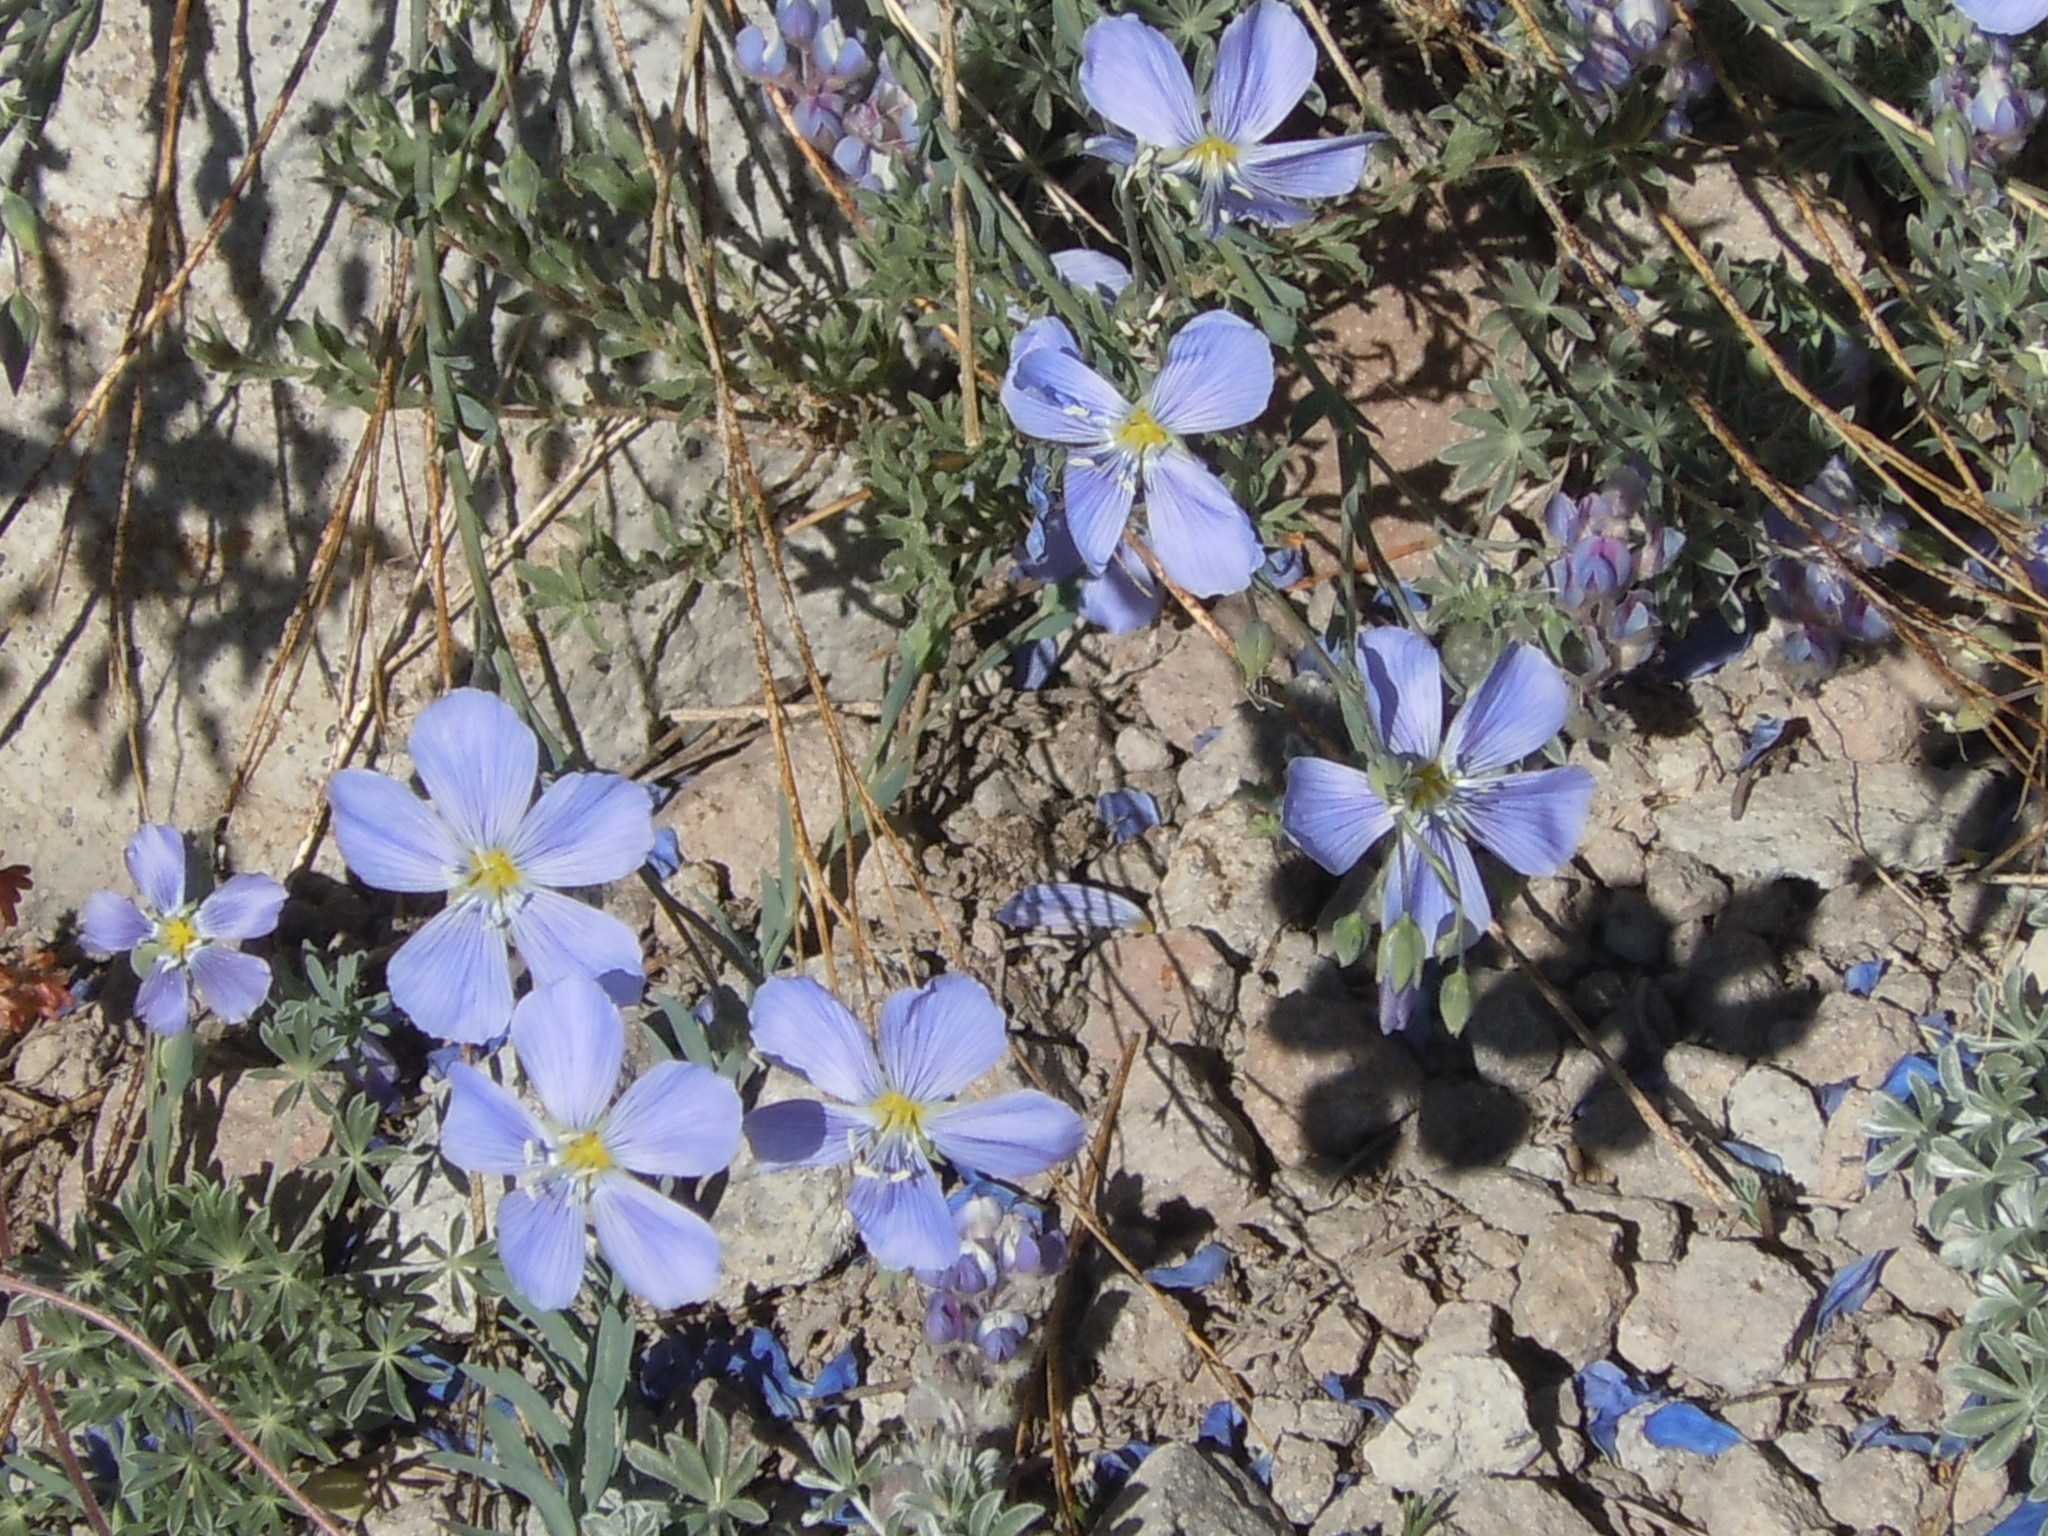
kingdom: Plantae
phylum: Tracheophyta
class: Magnoliopsida
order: Malpighiales
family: Linaceae
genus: Linum
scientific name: Linum lewisii
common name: Prairie flax
